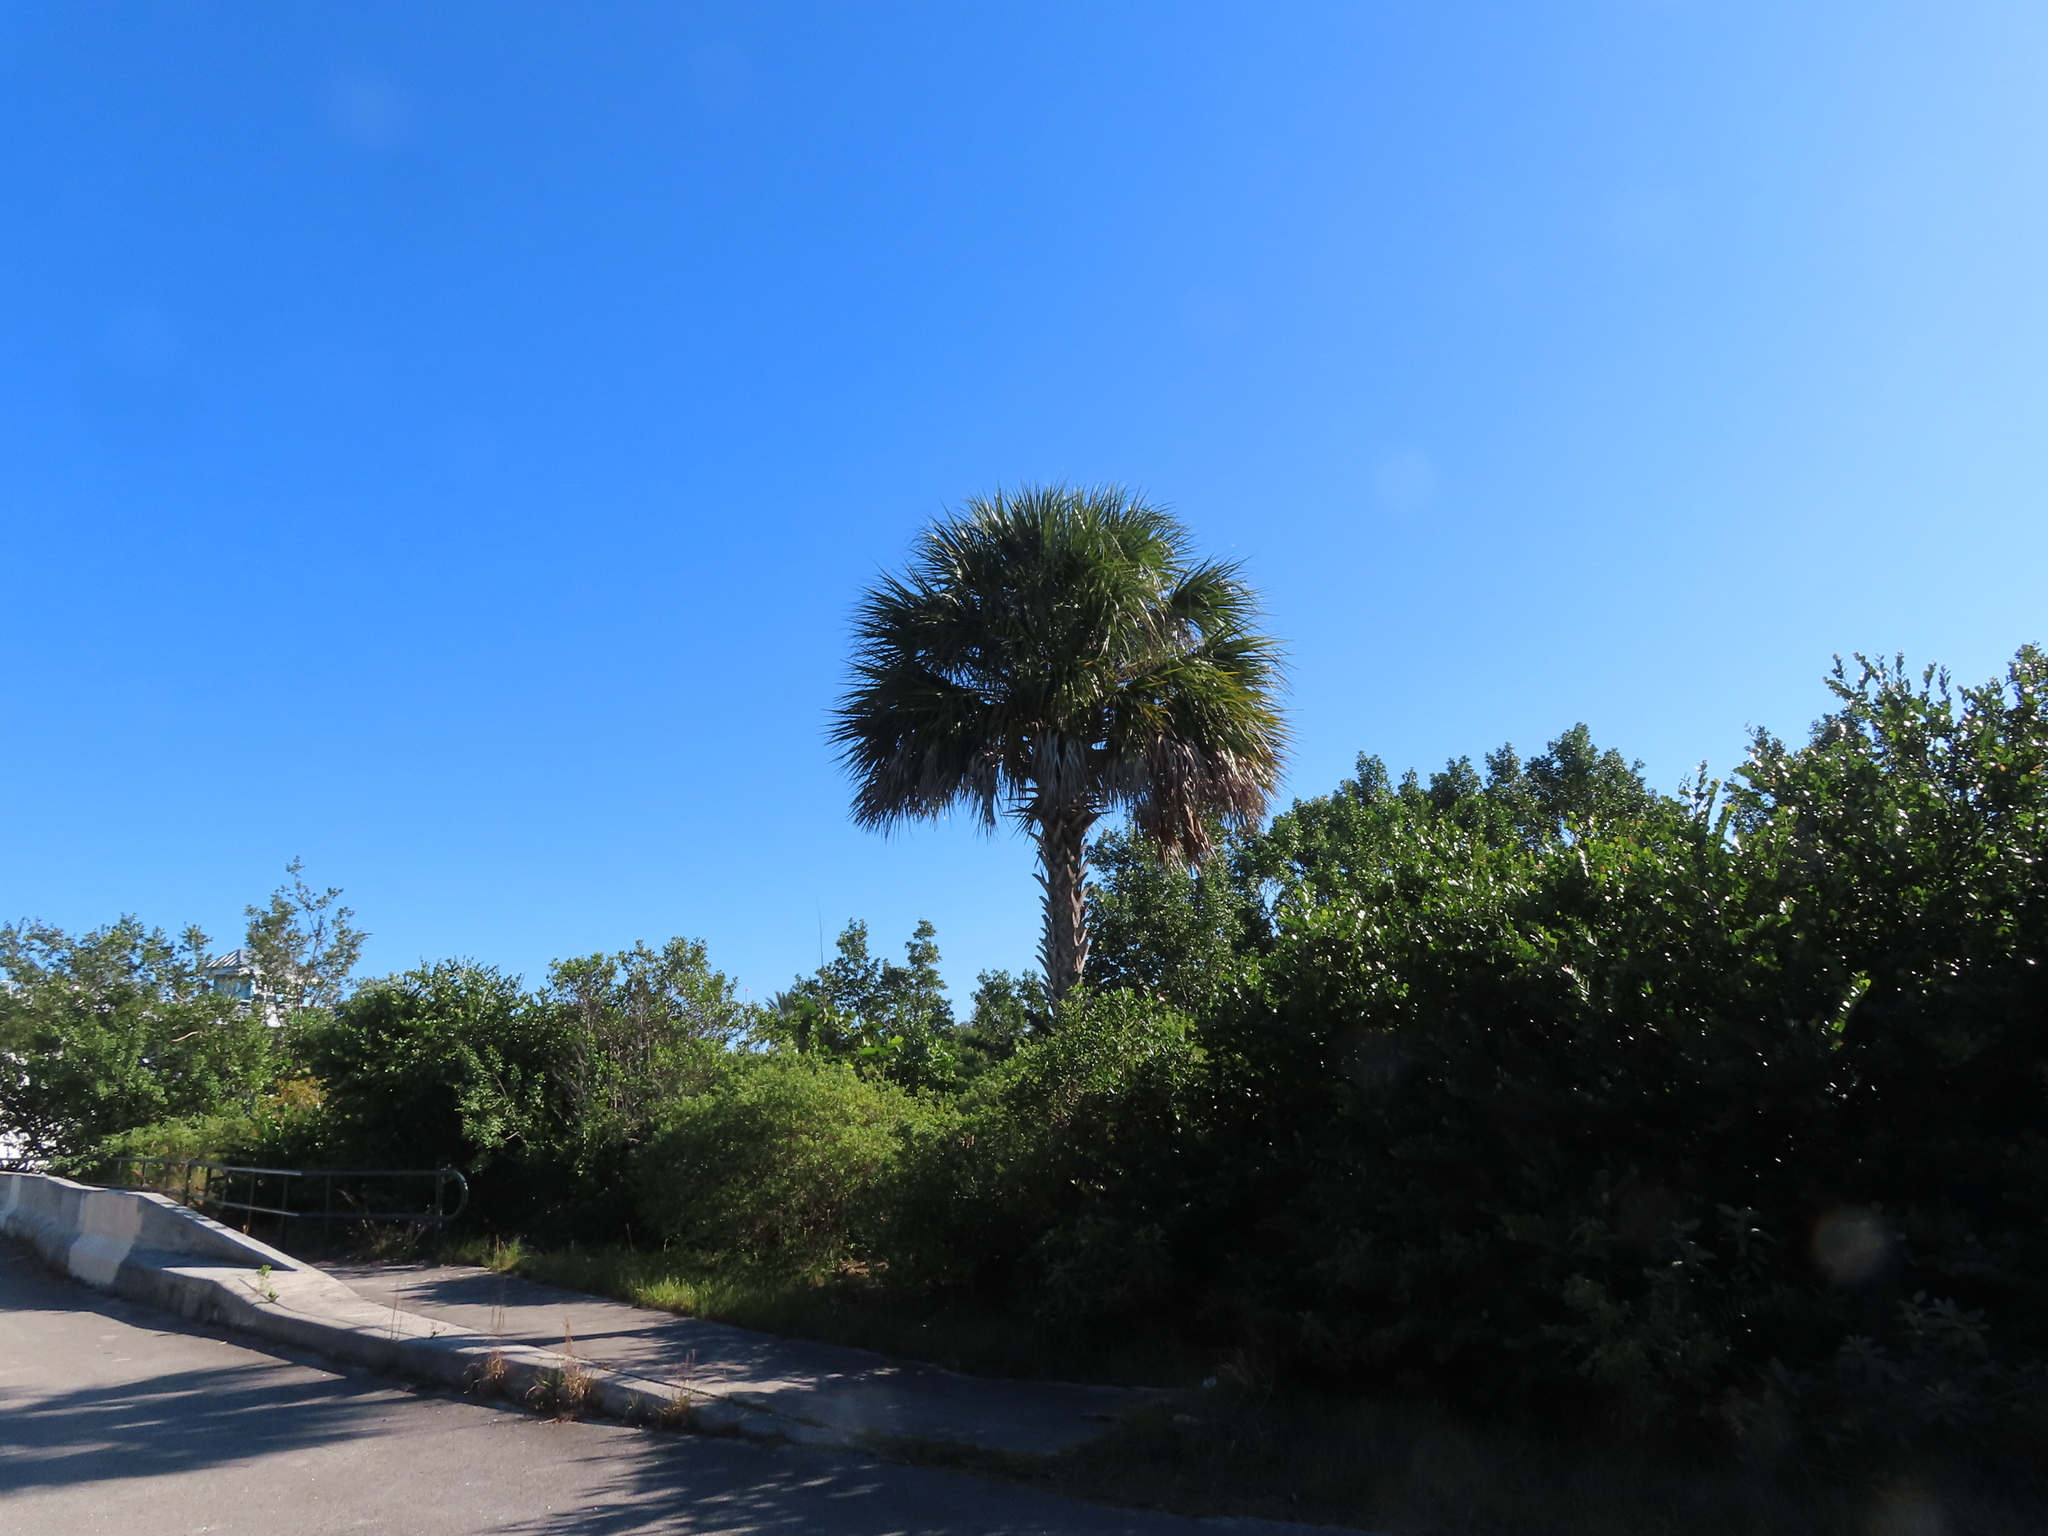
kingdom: Plantae
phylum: Tracheophyta
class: Liliopsida
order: Arecales
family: Arecaceae
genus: Sabal
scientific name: Sabal palmetto
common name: Blue palmetto
